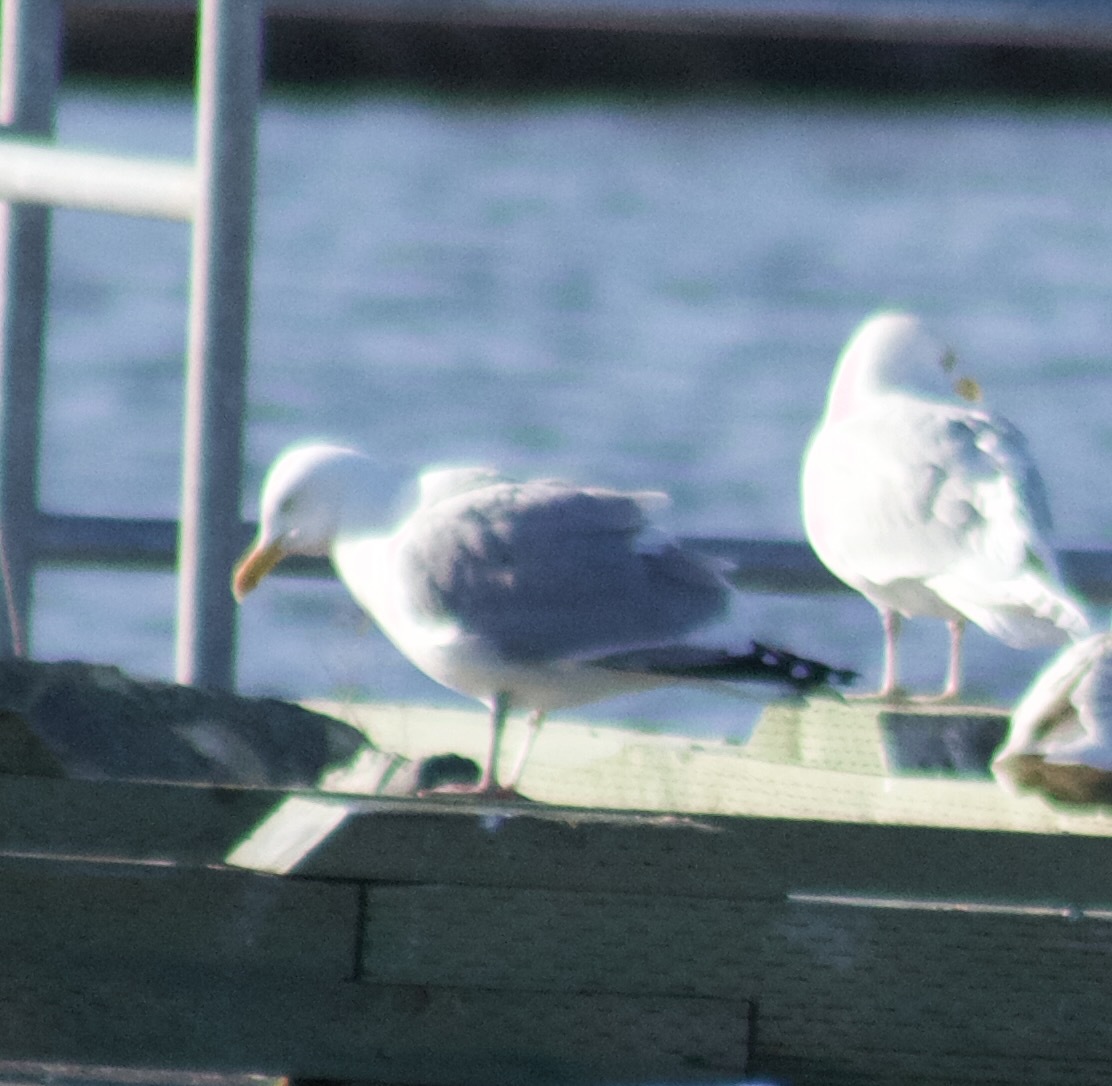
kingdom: Animalia
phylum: Chordata
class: Aves
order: Charadriiformes
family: Laridae
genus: Larus
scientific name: Larus argentatus
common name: Herring gull
